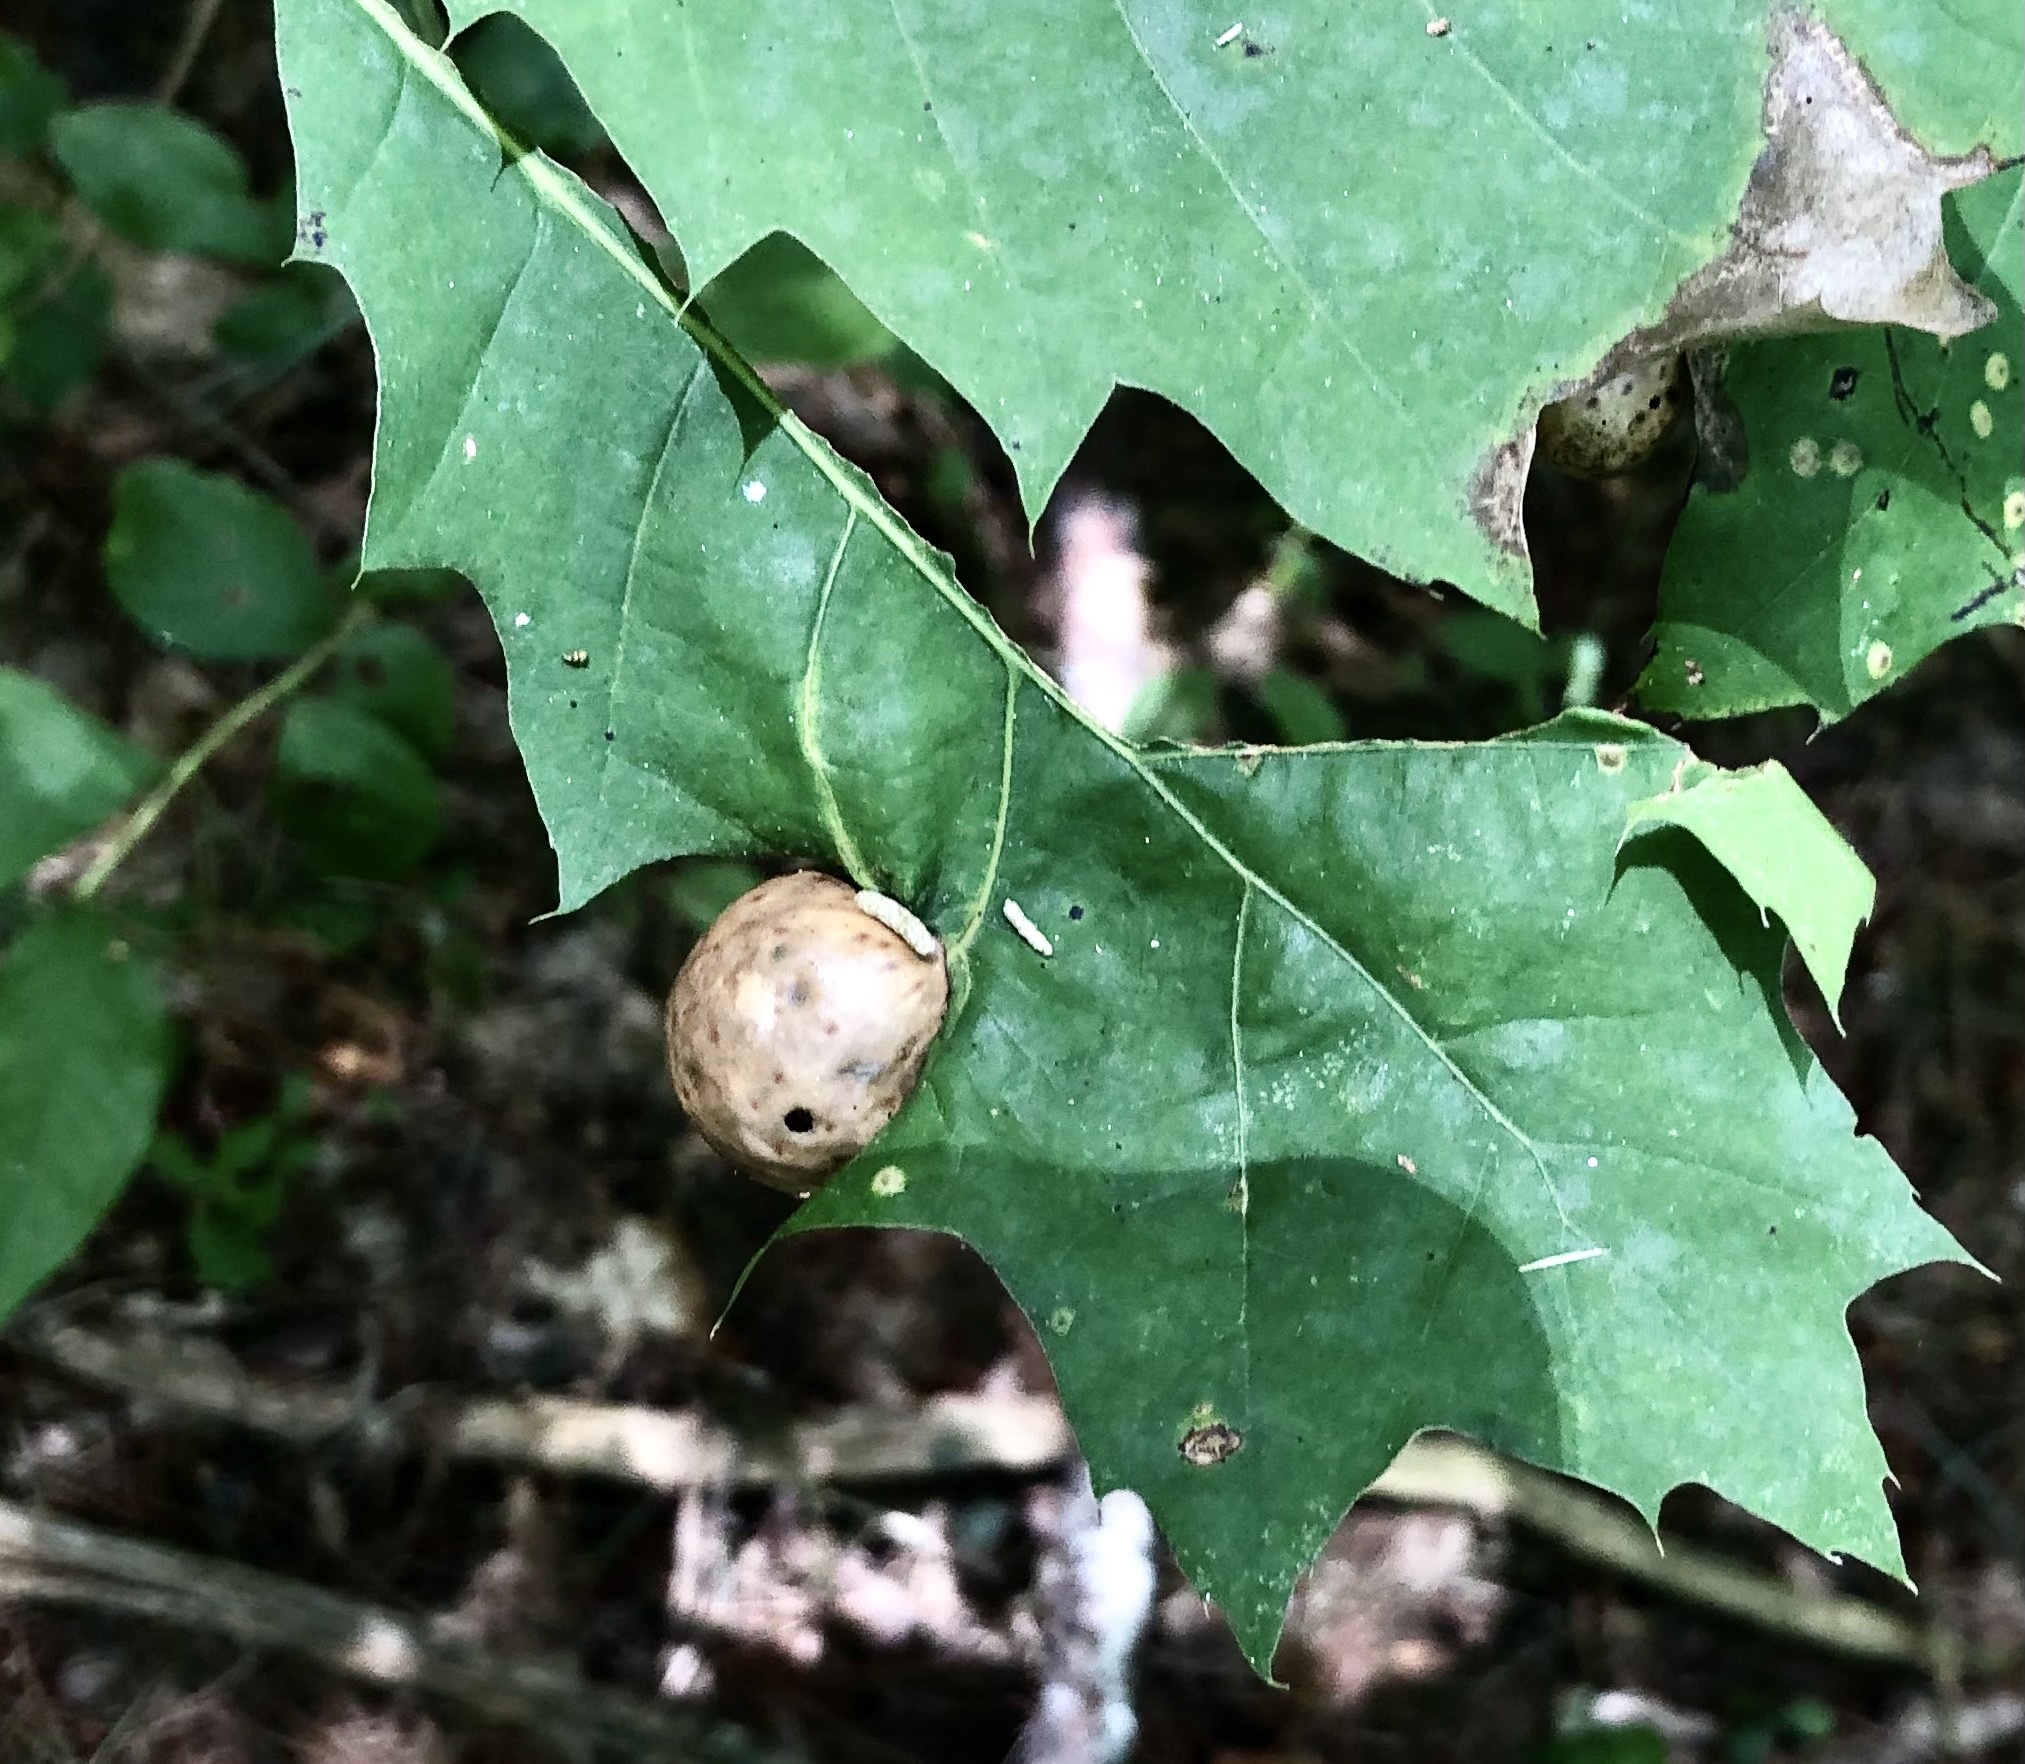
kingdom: Animalia
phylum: Arthropoda
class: Insecta
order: Hymenoptera
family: Cynipidae
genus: Amphibolips
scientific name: Amphibolips
